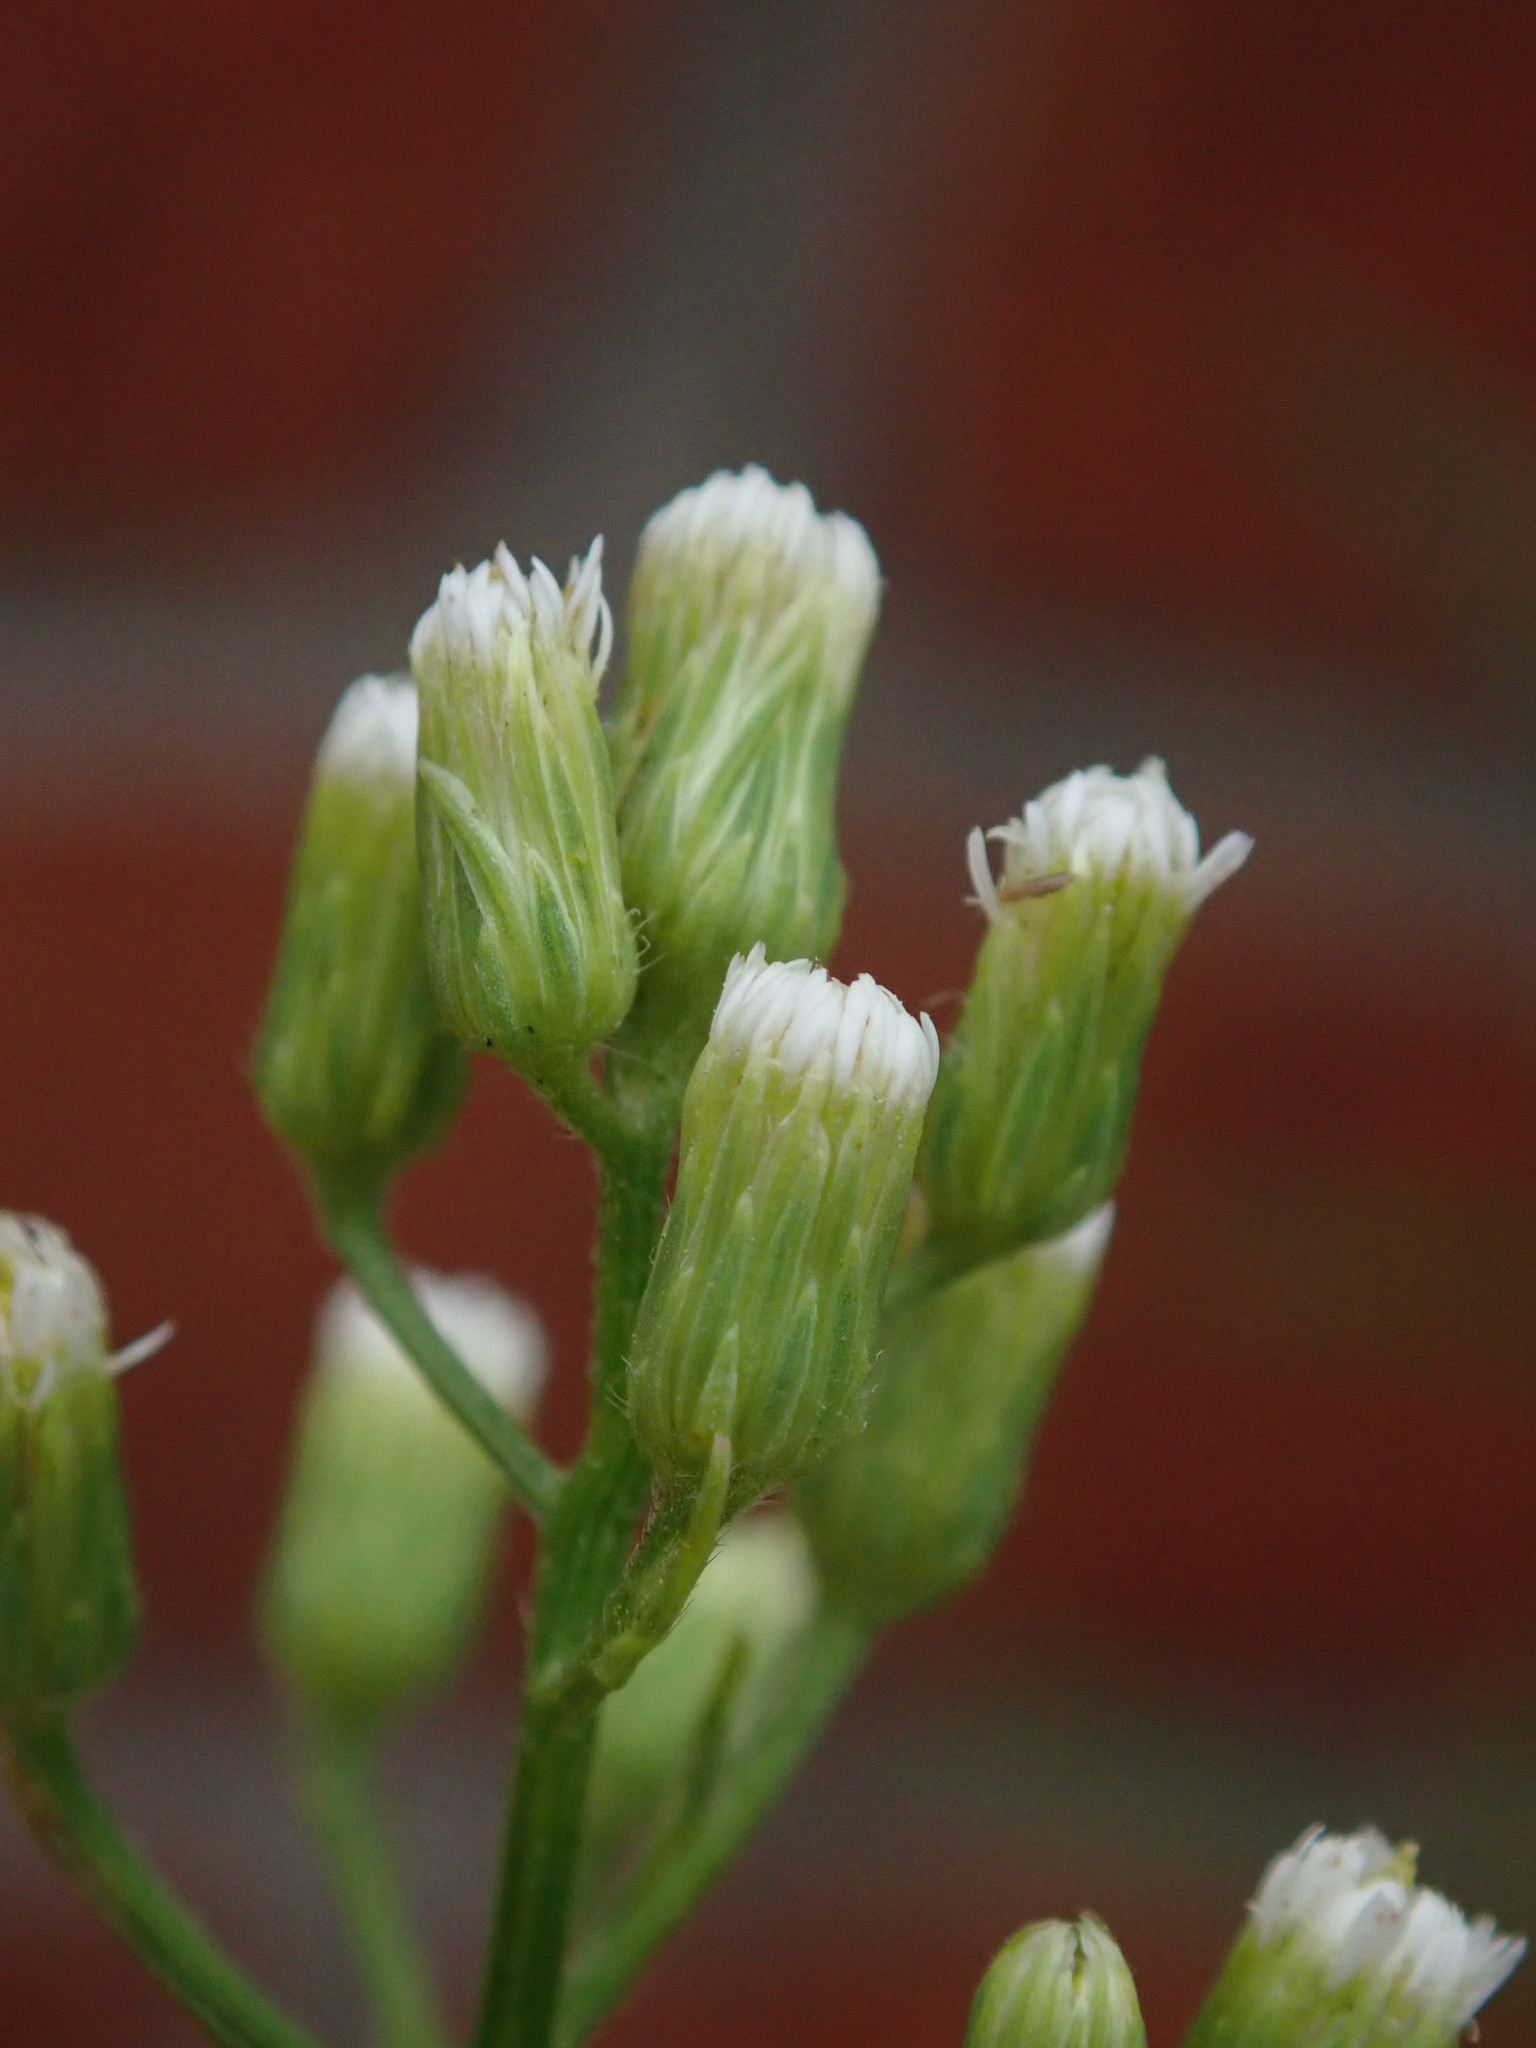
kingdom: Plantae
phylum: Tracheophyta
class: Magnoliopsida
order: Asterales
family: Asteraceae
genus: Erigeron
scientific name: Erigeron canadensis
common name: Canadian fleabane
